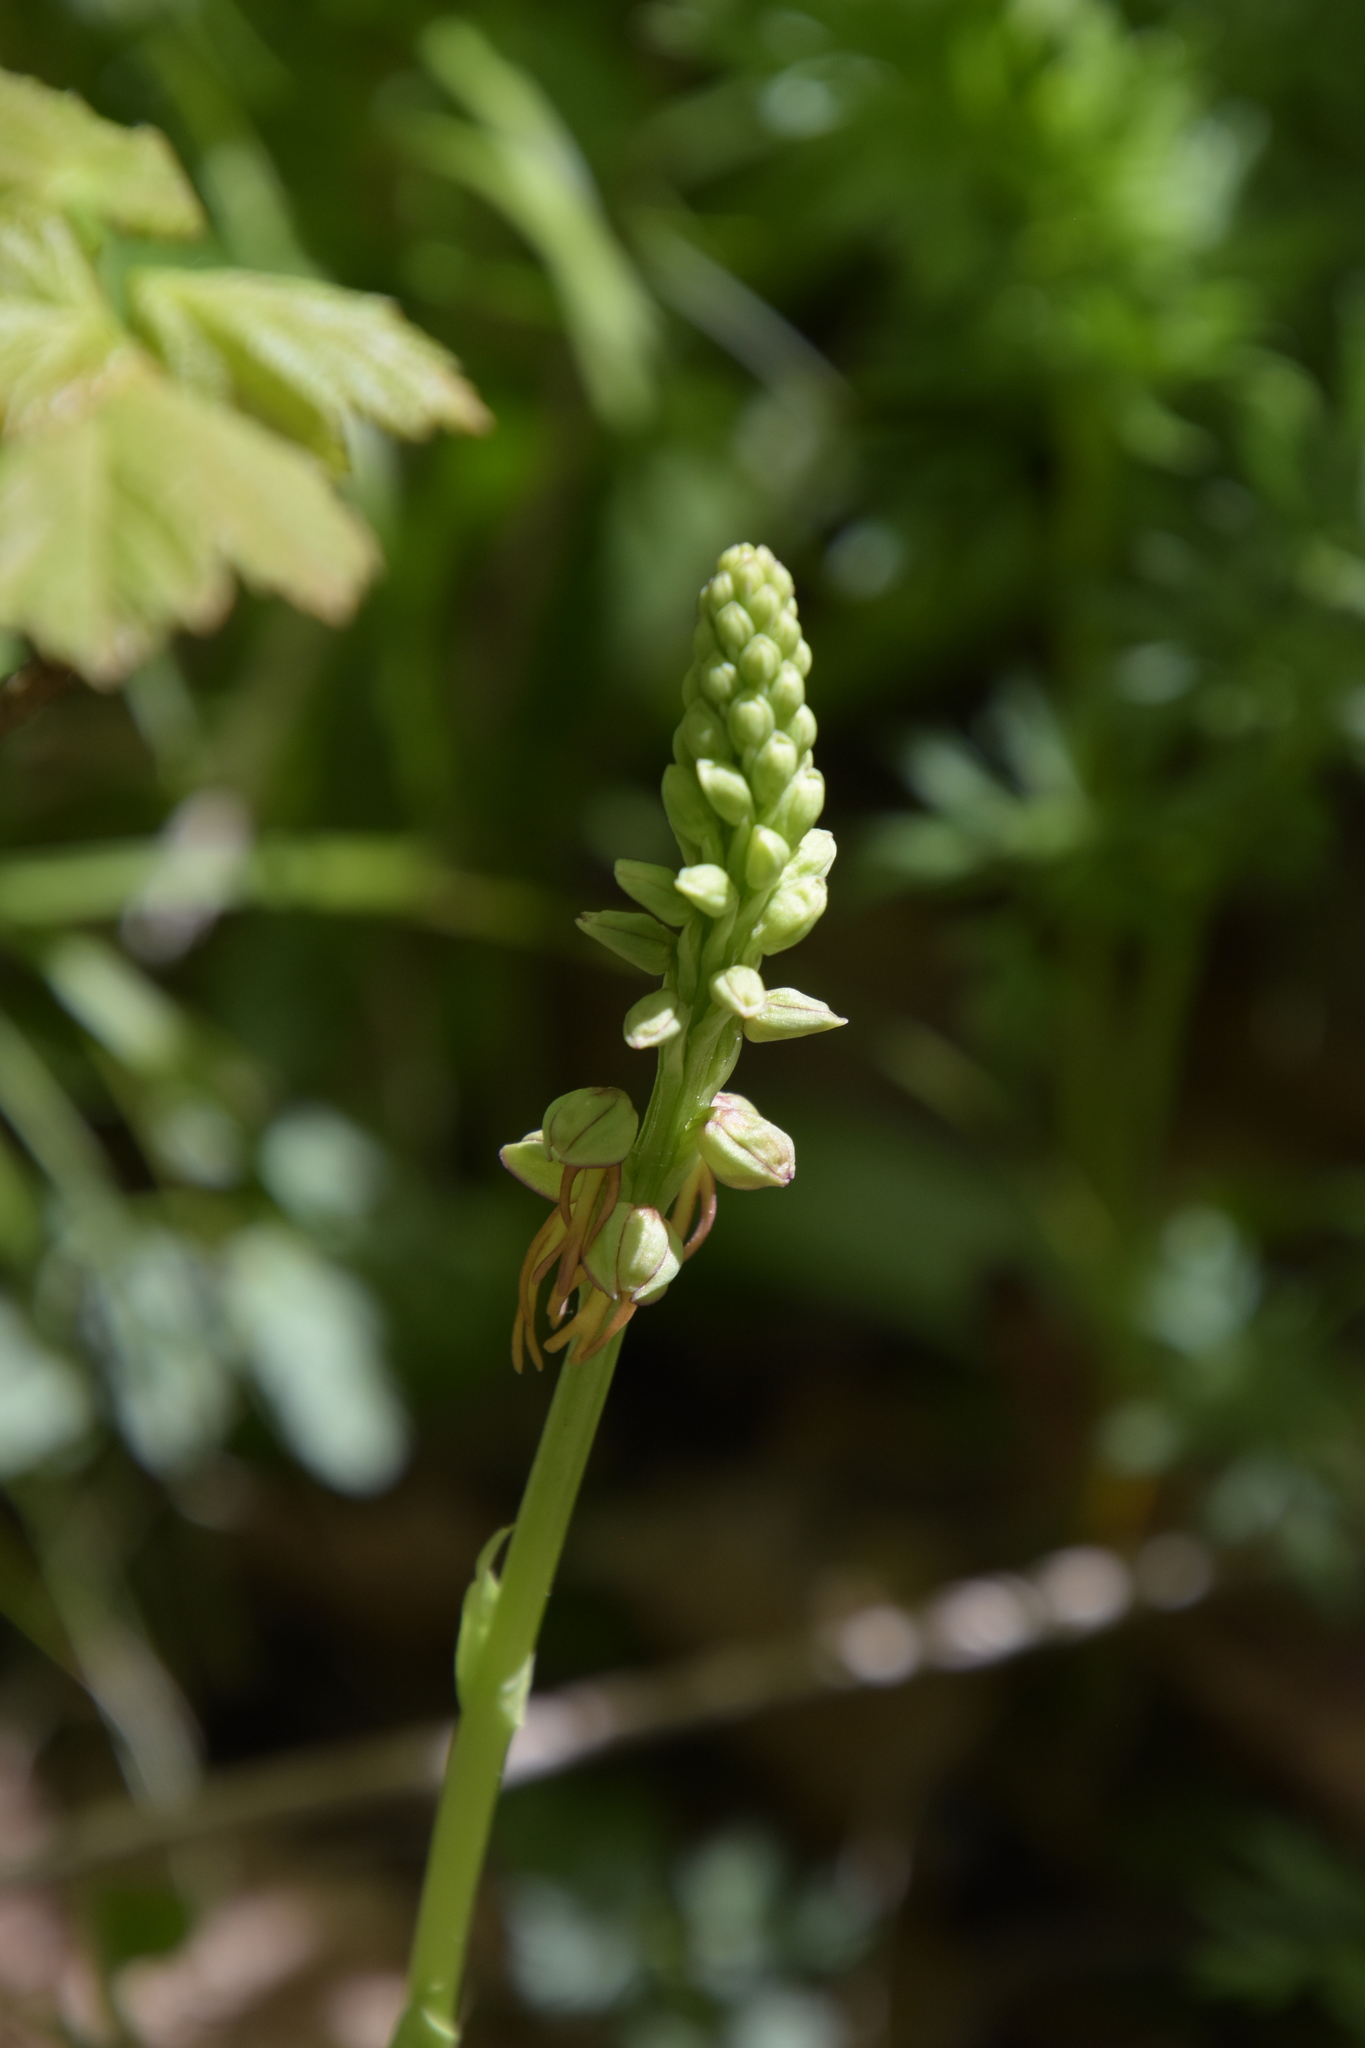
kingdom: Plantae
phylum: Tracheophyta
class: Liliopsida
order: Asparagales
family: Orchidaceae
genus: Orchis
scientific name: Orchis anthropophora
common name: Man orchid
